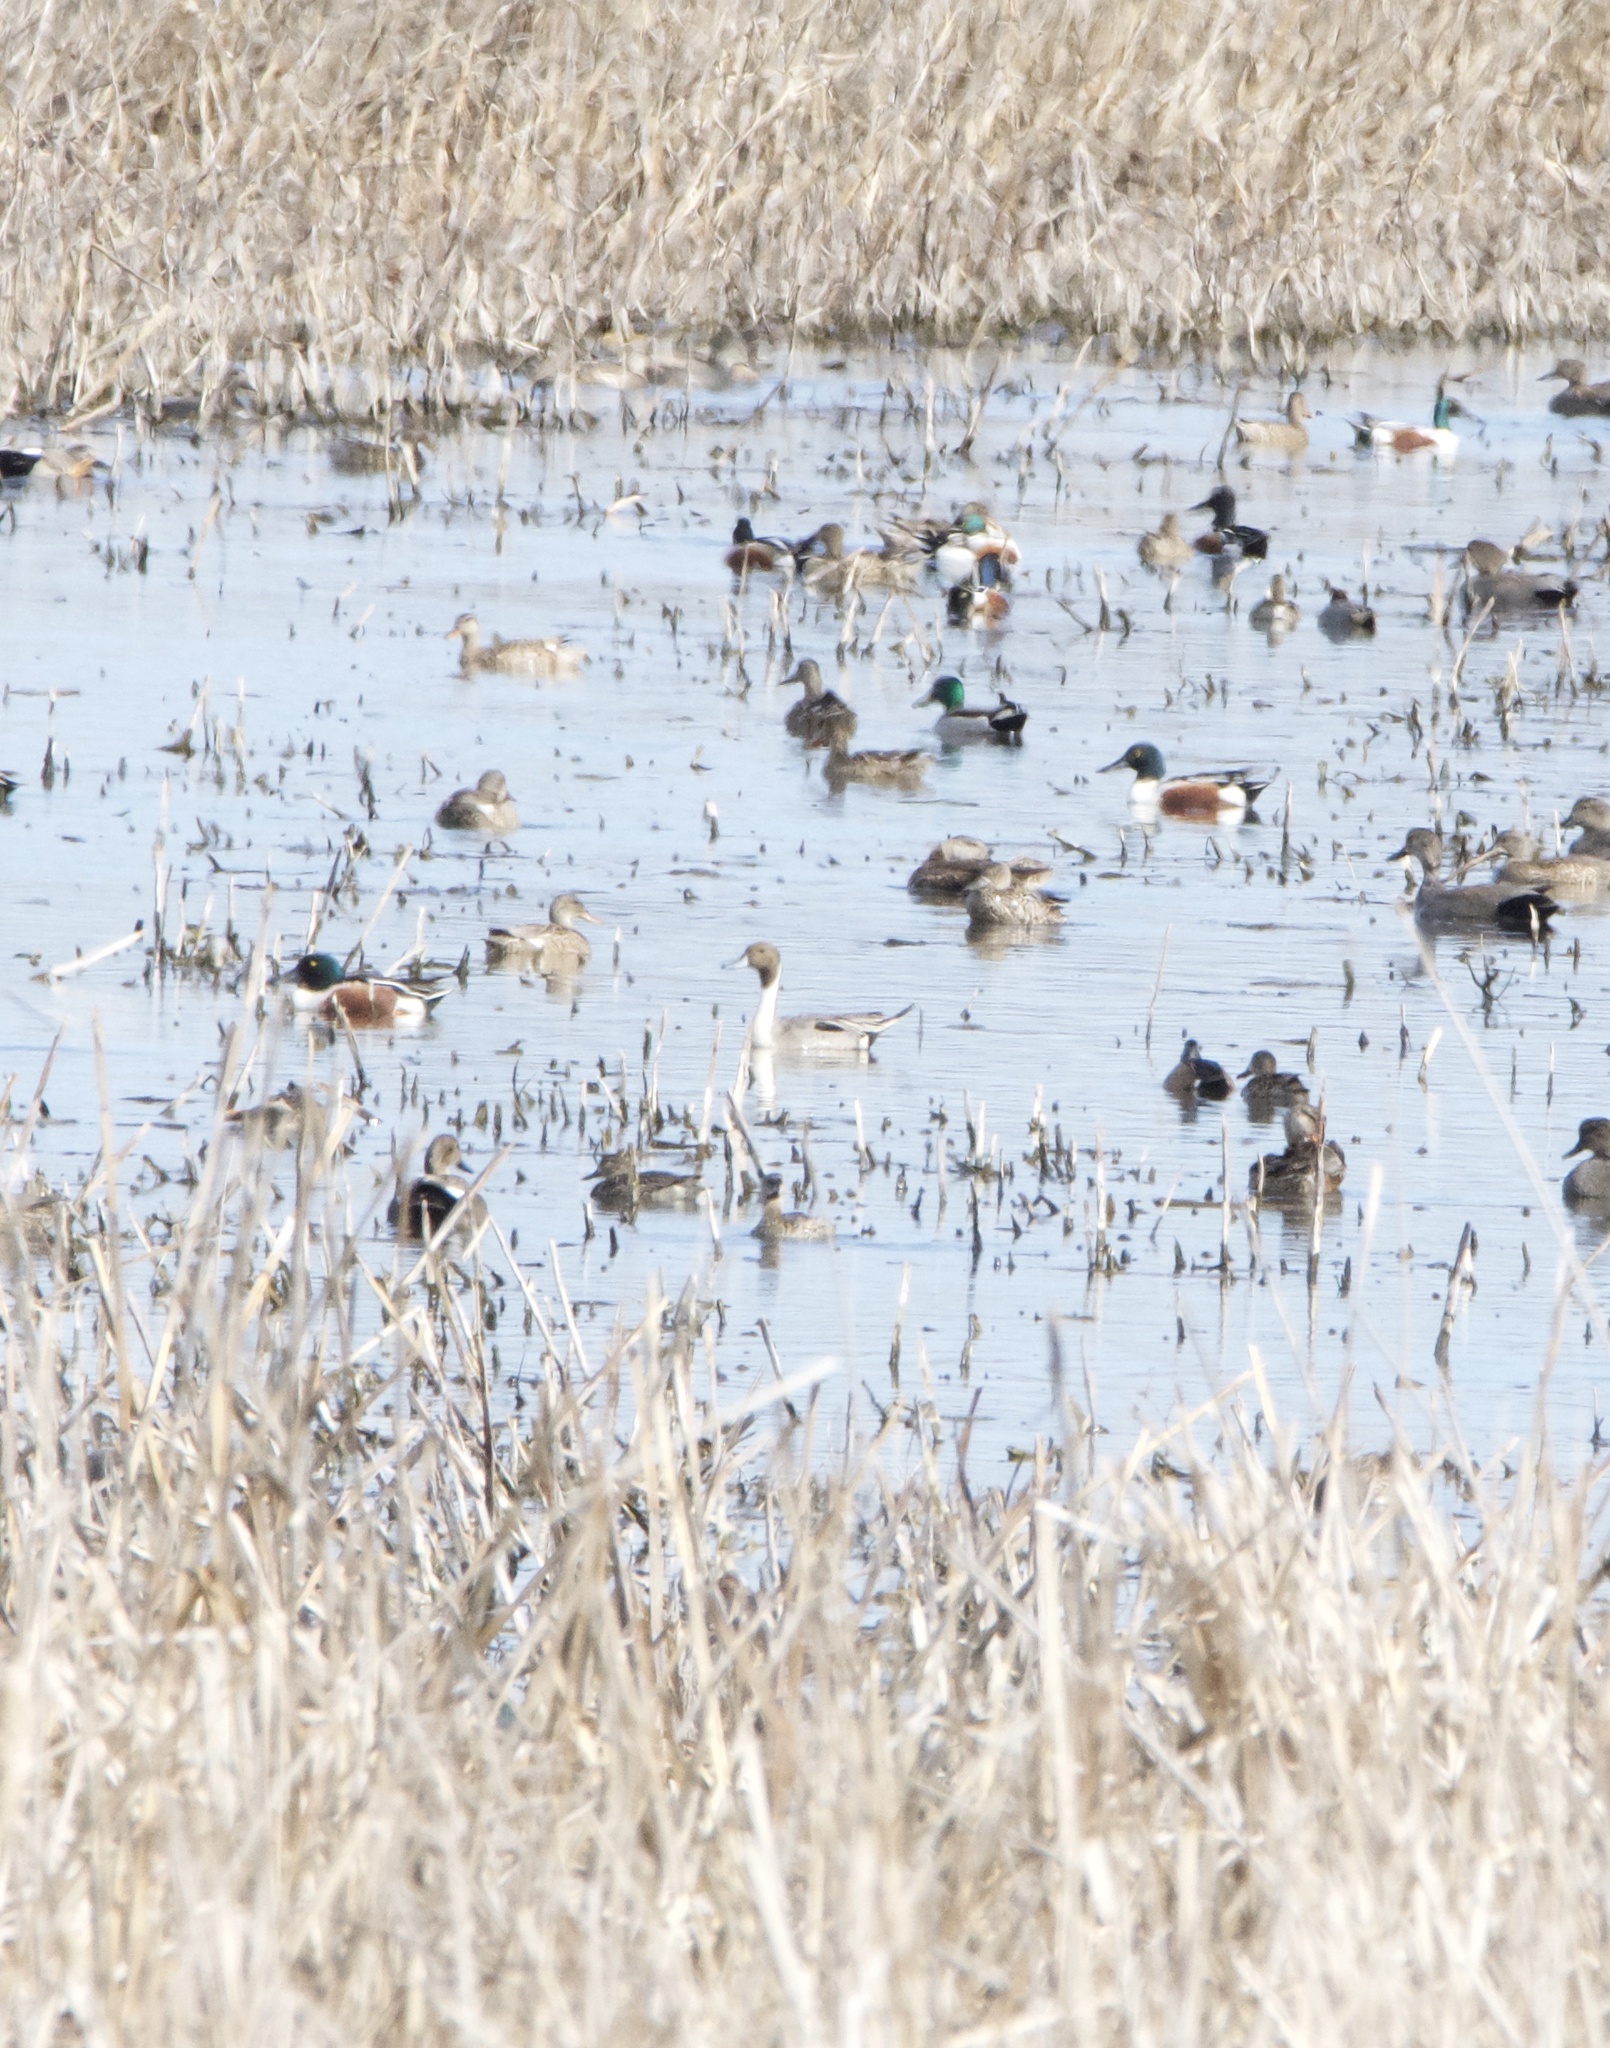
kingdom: Animalia
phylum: Chordata
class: Aves
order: Anseriformes
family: Anatidae
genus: Anas
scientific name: Anas acuta
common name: Northern pintail
